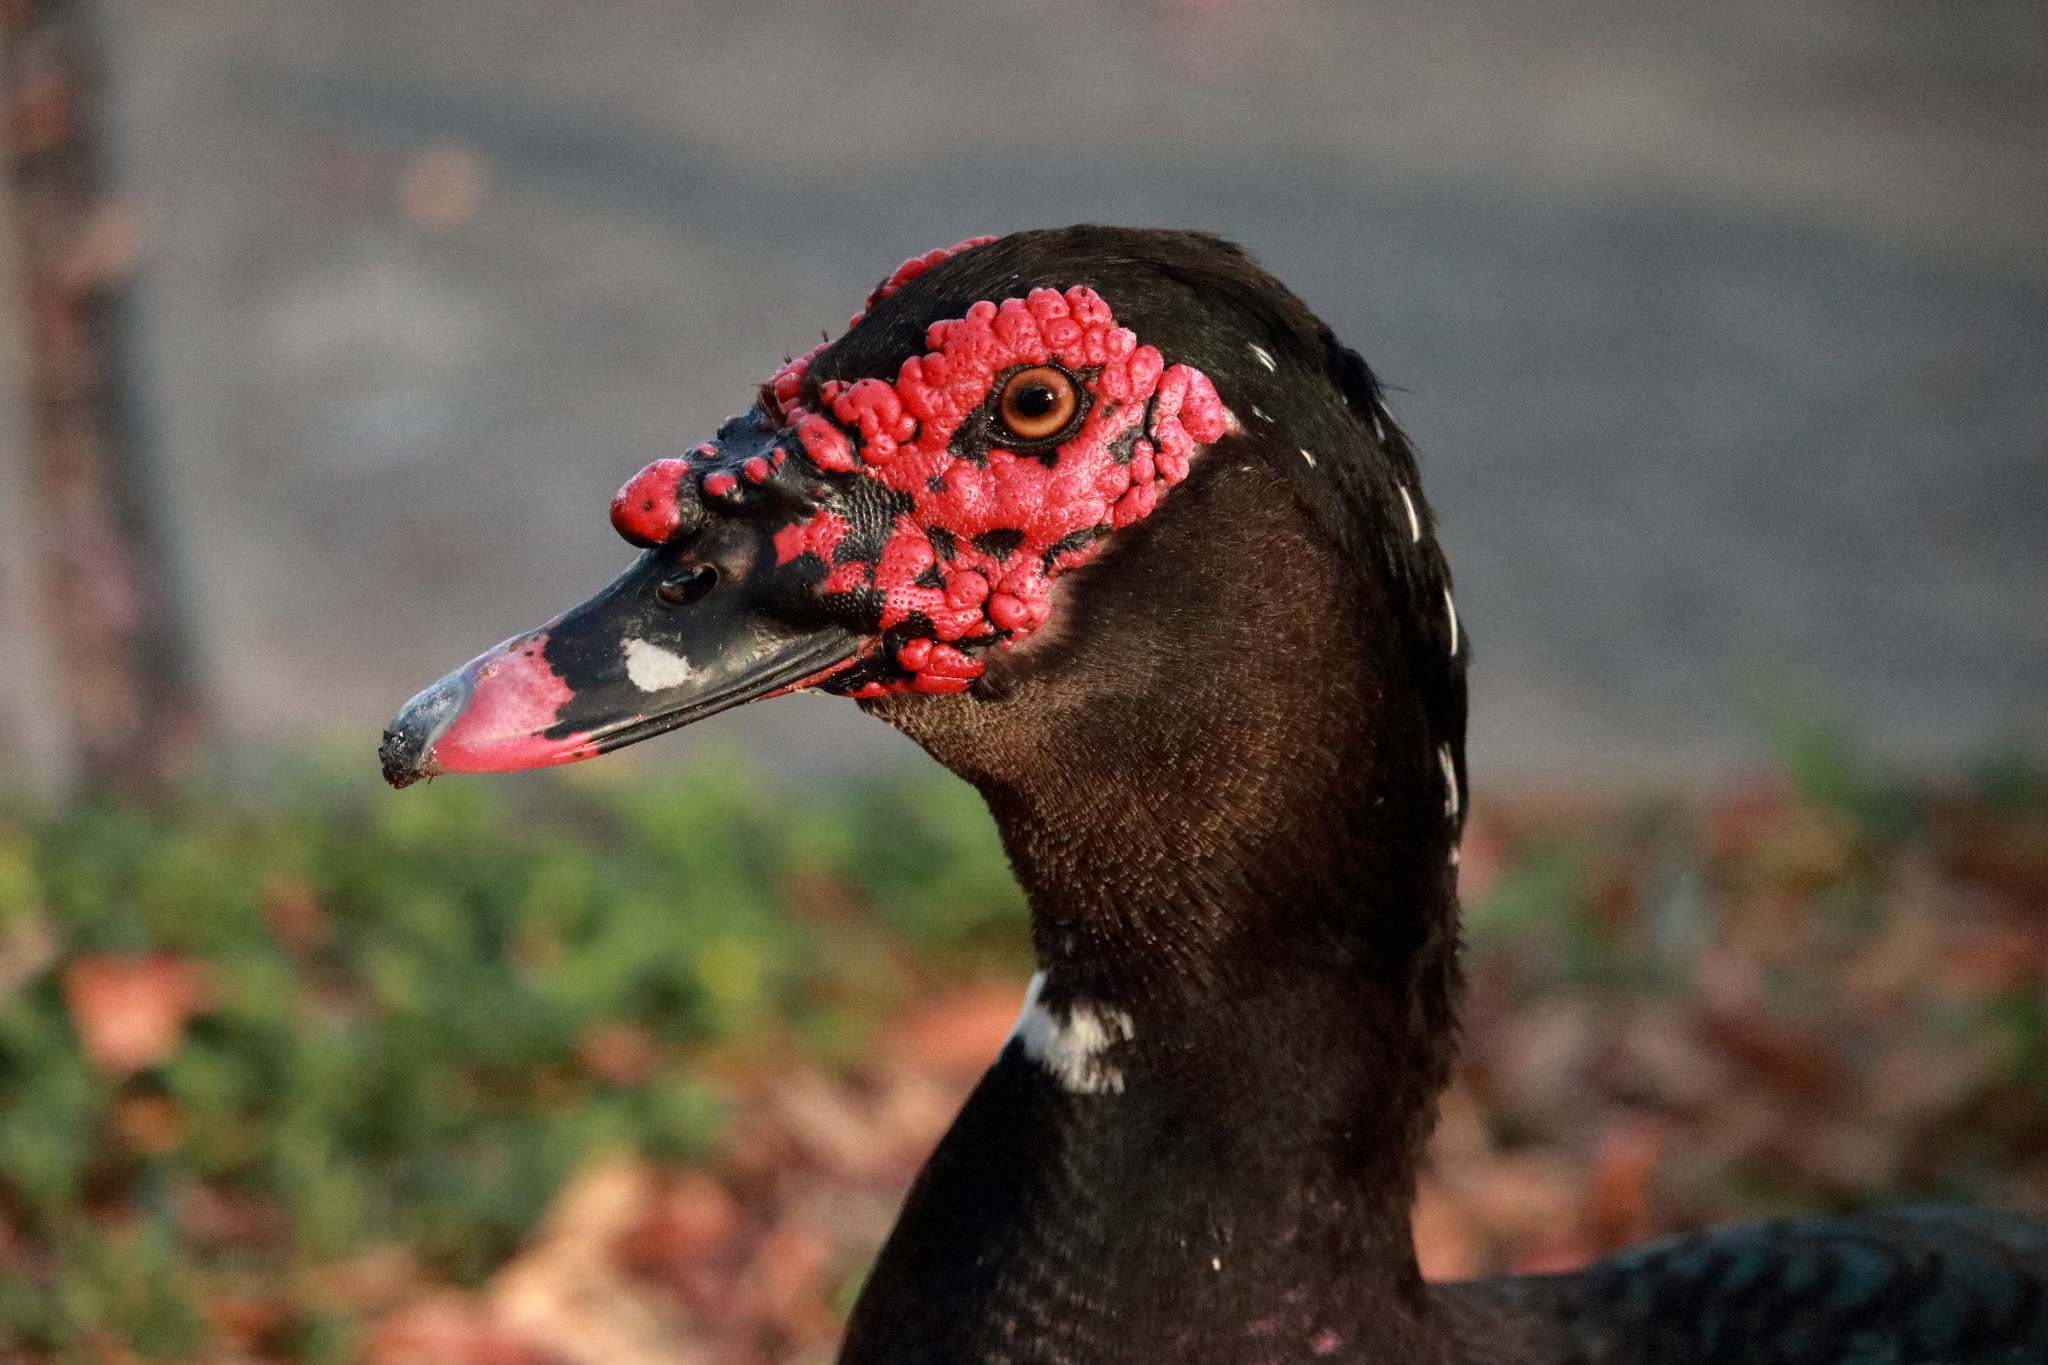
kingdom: Animalia
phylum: Chordata
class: Aves
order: Anseriformes
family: Anatidae
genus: Cairina
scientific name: Cairina moschata
